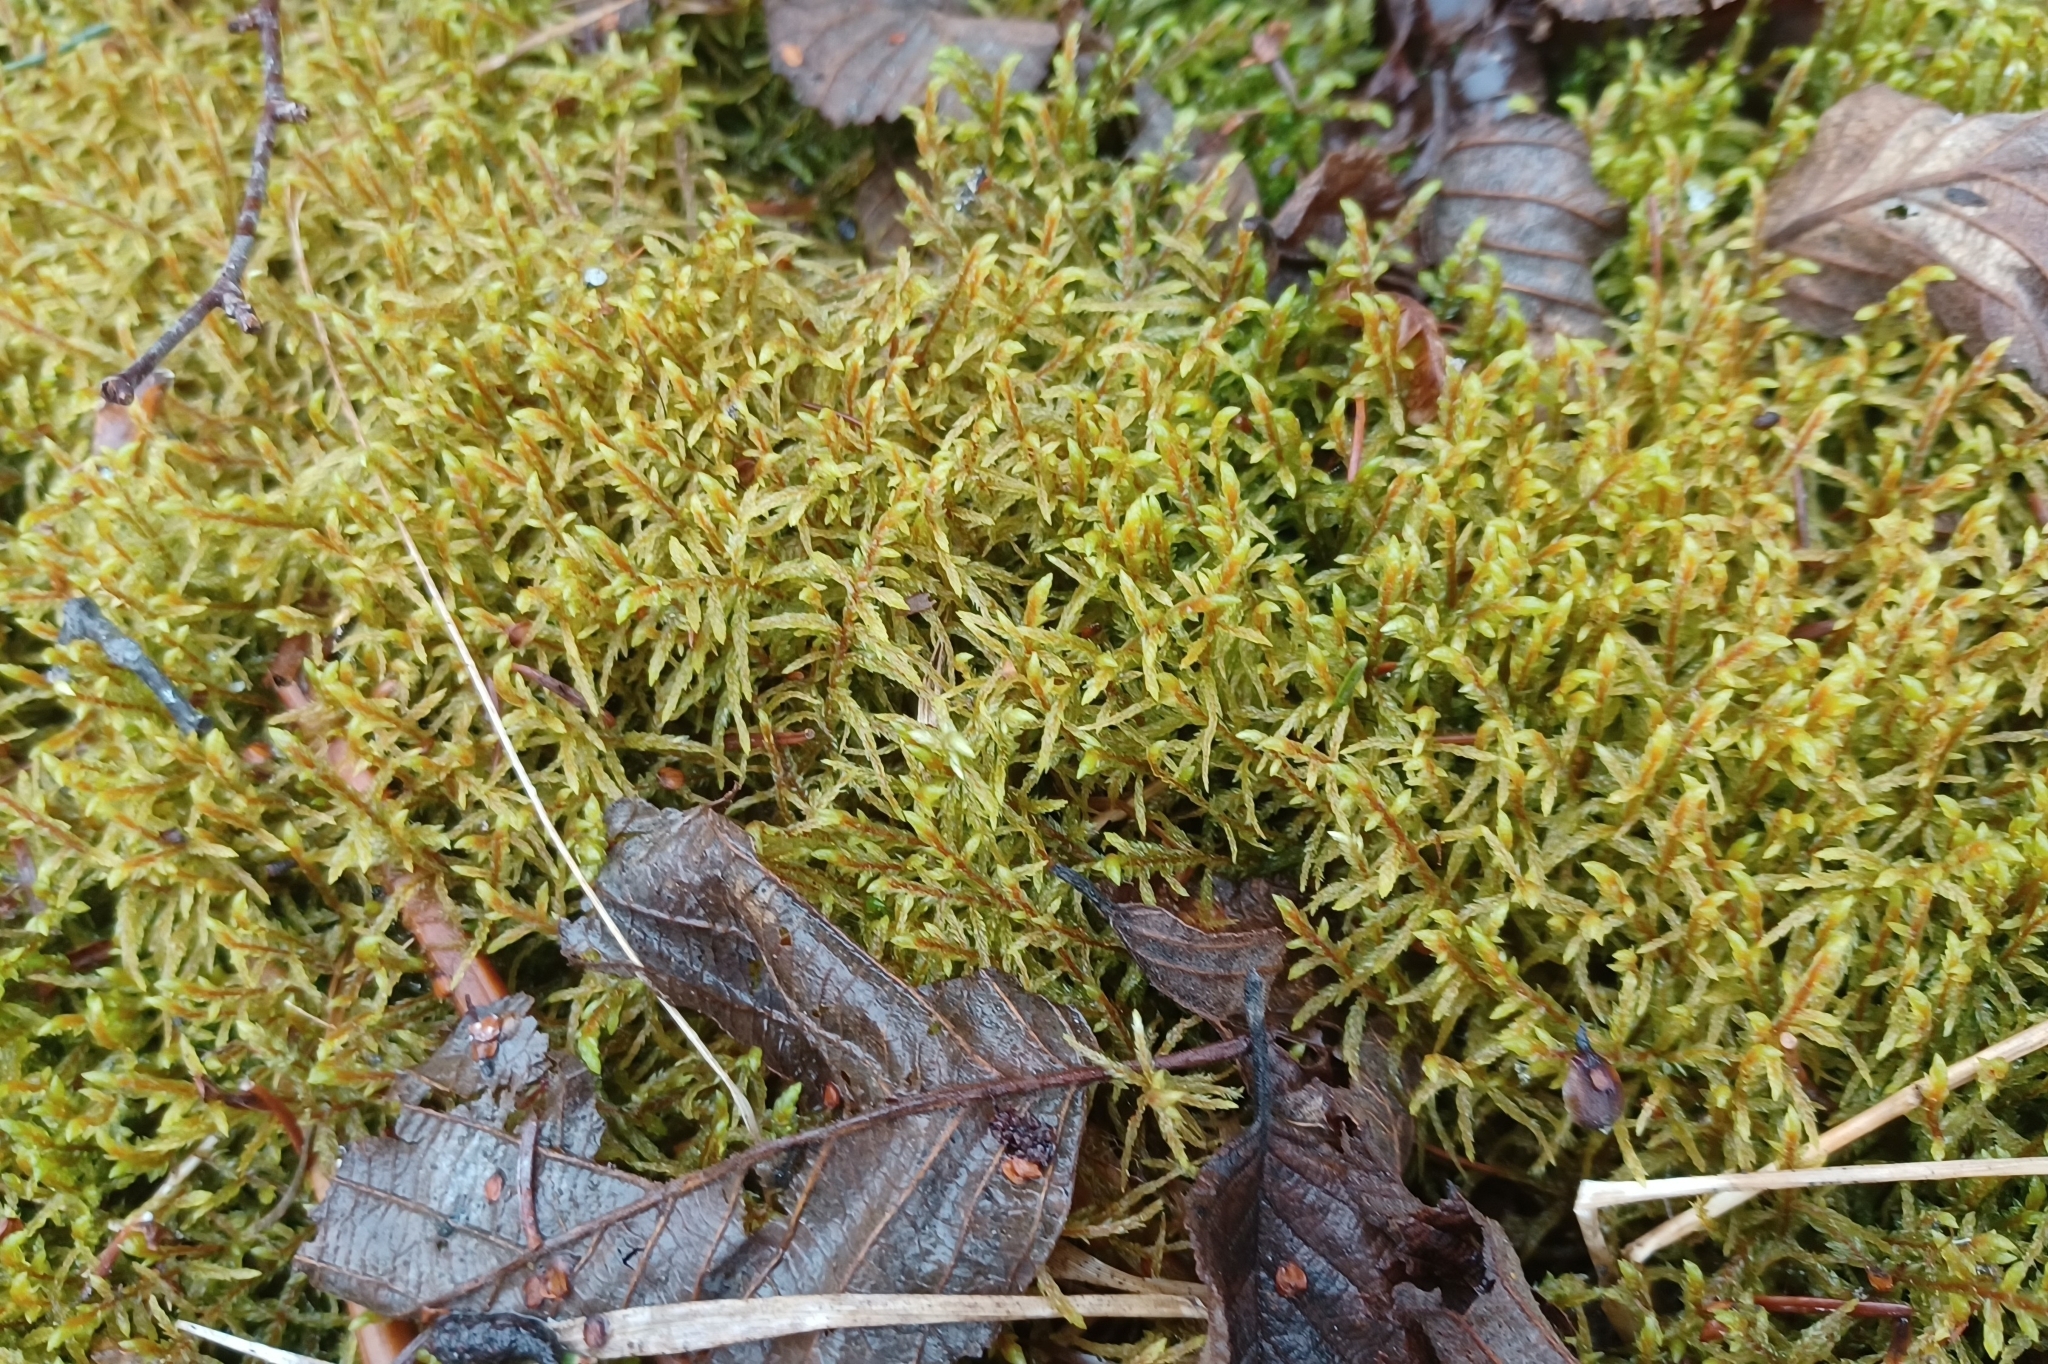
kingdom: Plantae
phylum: Bryophyta
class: Bryopsida
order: Hypnales
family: Hylocomiaceae
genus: Pleurozium
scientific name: Pleurozium schreberi
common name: Red-stemmed feather moss
